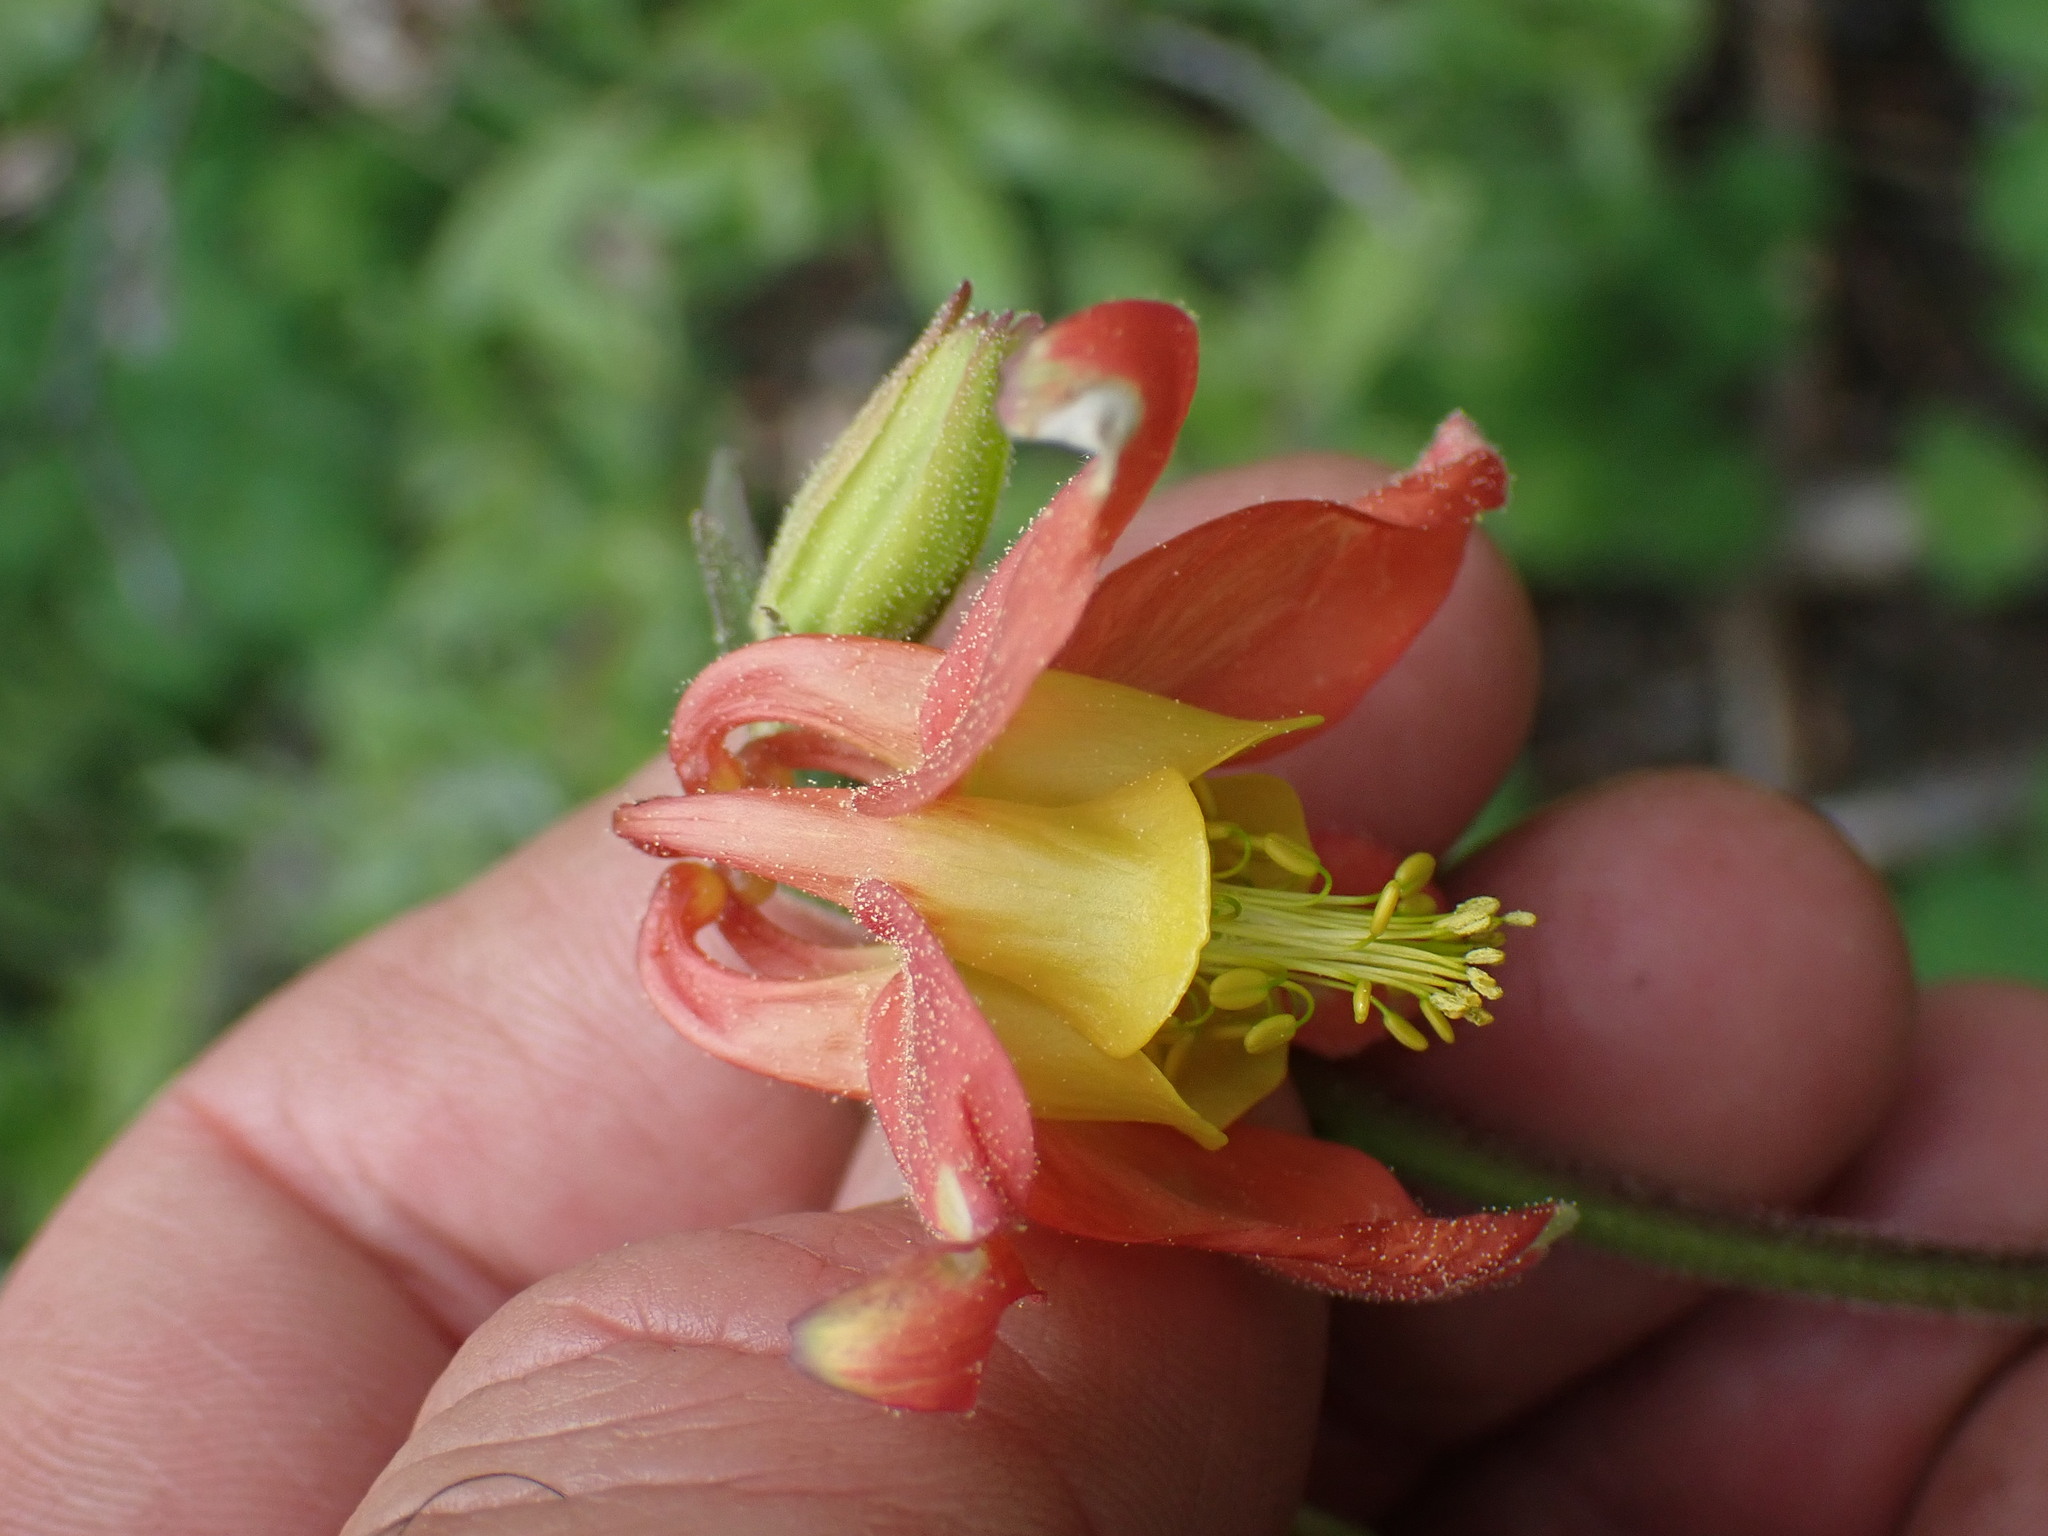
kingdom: Plantae
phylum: Tracheophyta
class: Magnoliopsida
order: Ranunculales
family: Ranunculaceae
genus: Aquilegia
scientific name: Aquilegia formosa
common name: Sitka columbine
